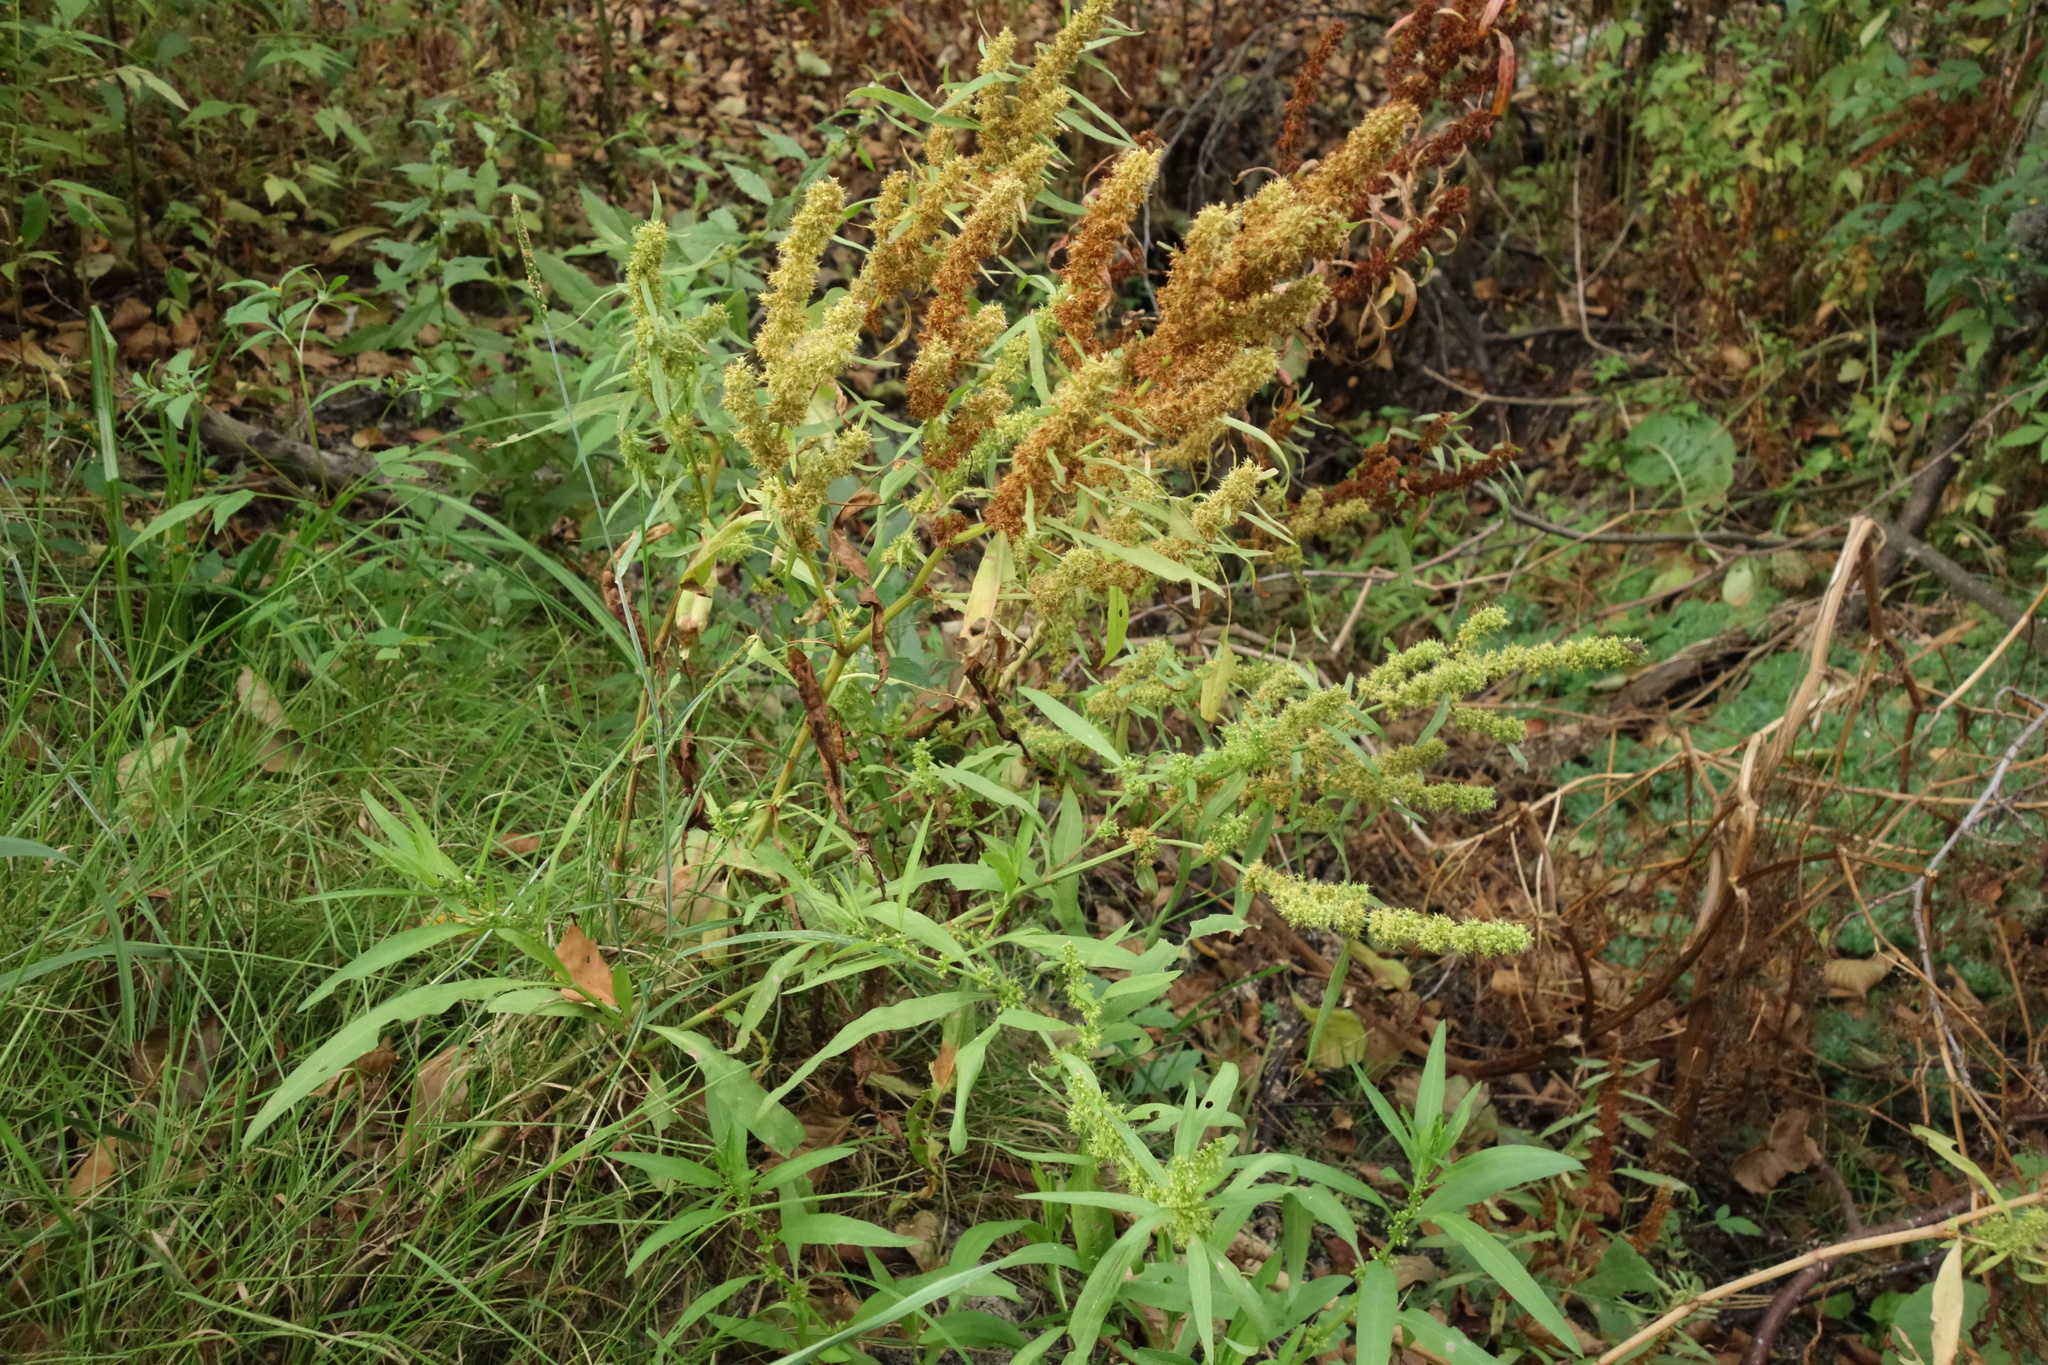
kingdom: Plantae
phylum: Tracheophyta
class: Magnoliopsida
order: Caryophyllales
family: Polygonaceae
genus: Rumex
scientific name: Rumex maritimus
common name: Golden dock
